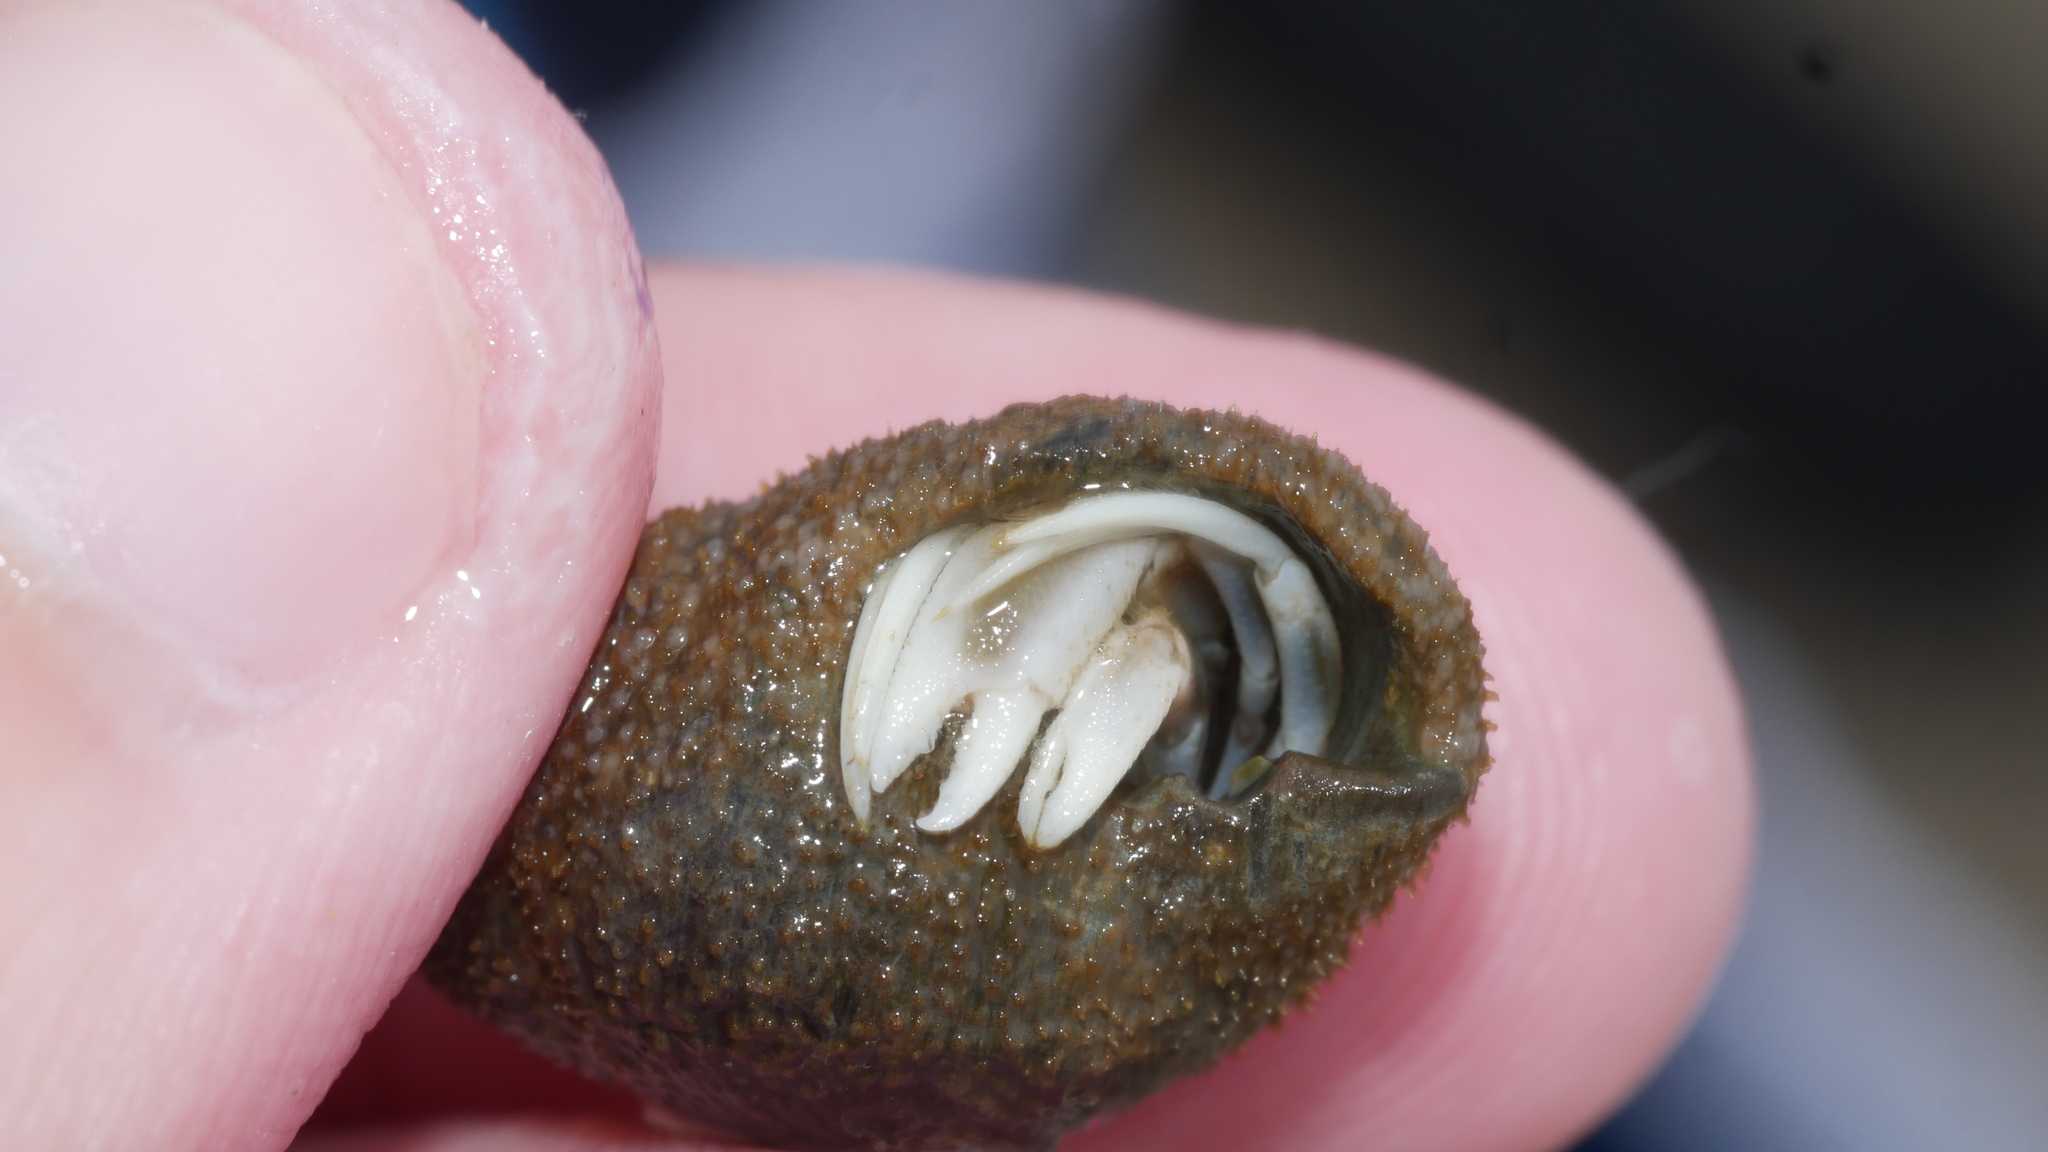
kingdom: Animalia
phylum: Arthropoda
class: Malacostraca
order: Decapoda
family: Paguridae
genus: Pagurus
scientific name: Pagurus longicarpus
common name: Long-armed hermit crab
